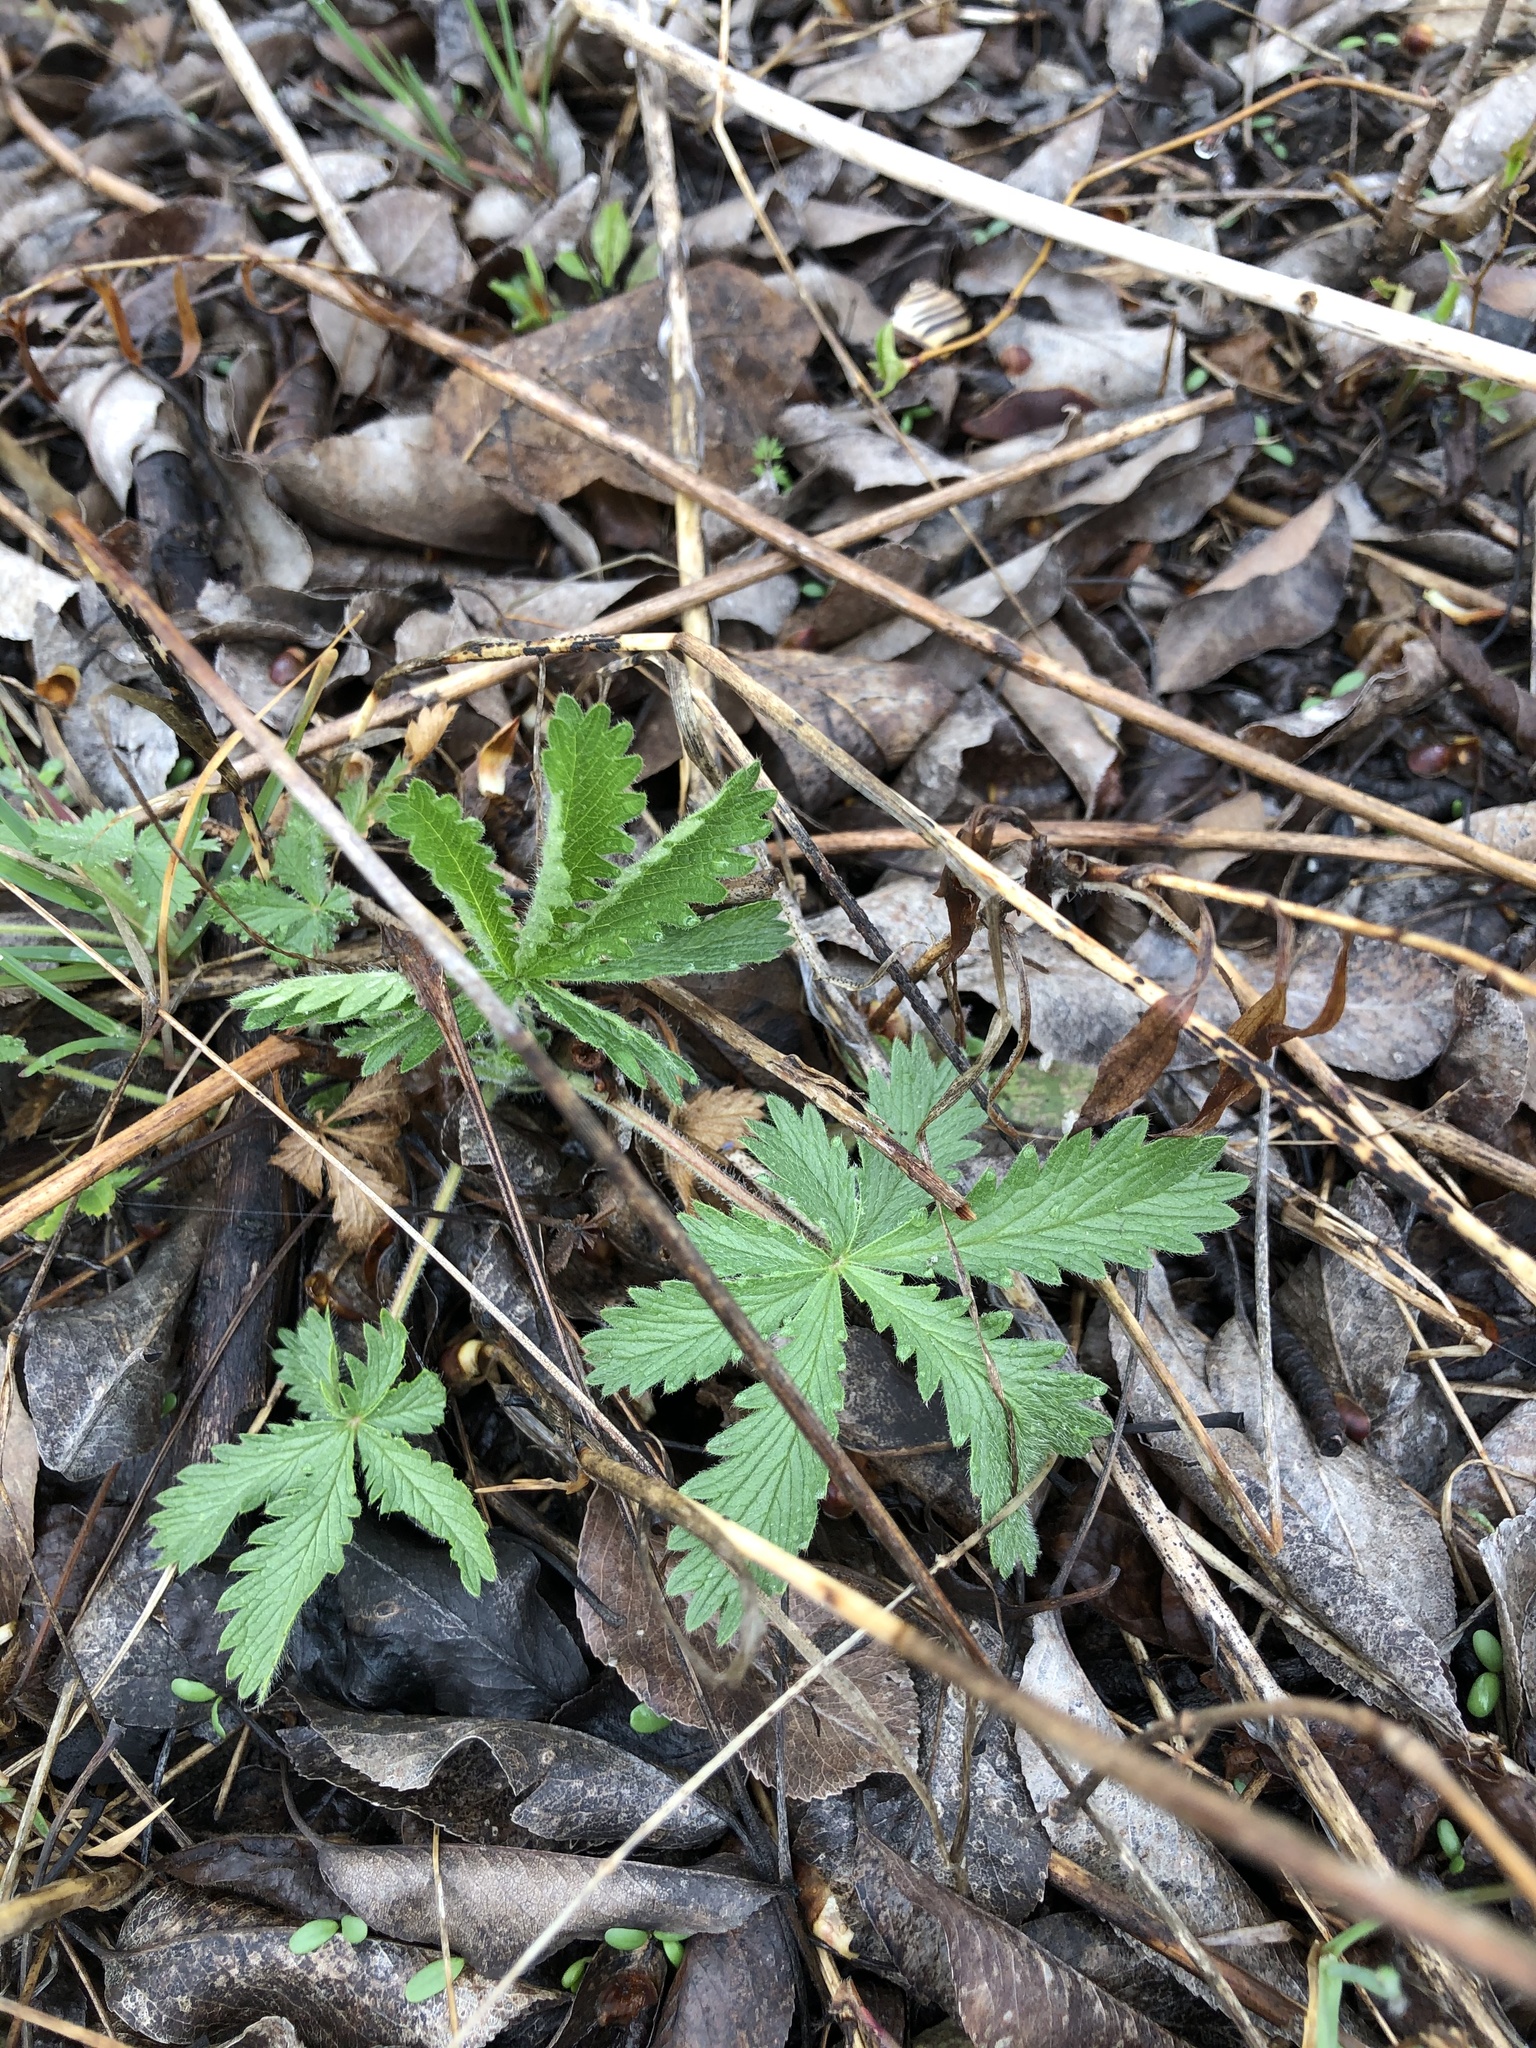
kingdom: Plantae
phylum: Tracheophyta
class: Magnoliopsida
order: Rosales
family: Rosaceae
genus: Potentilla
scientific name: Potentilla recta
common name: Sulphur cinquefoil
